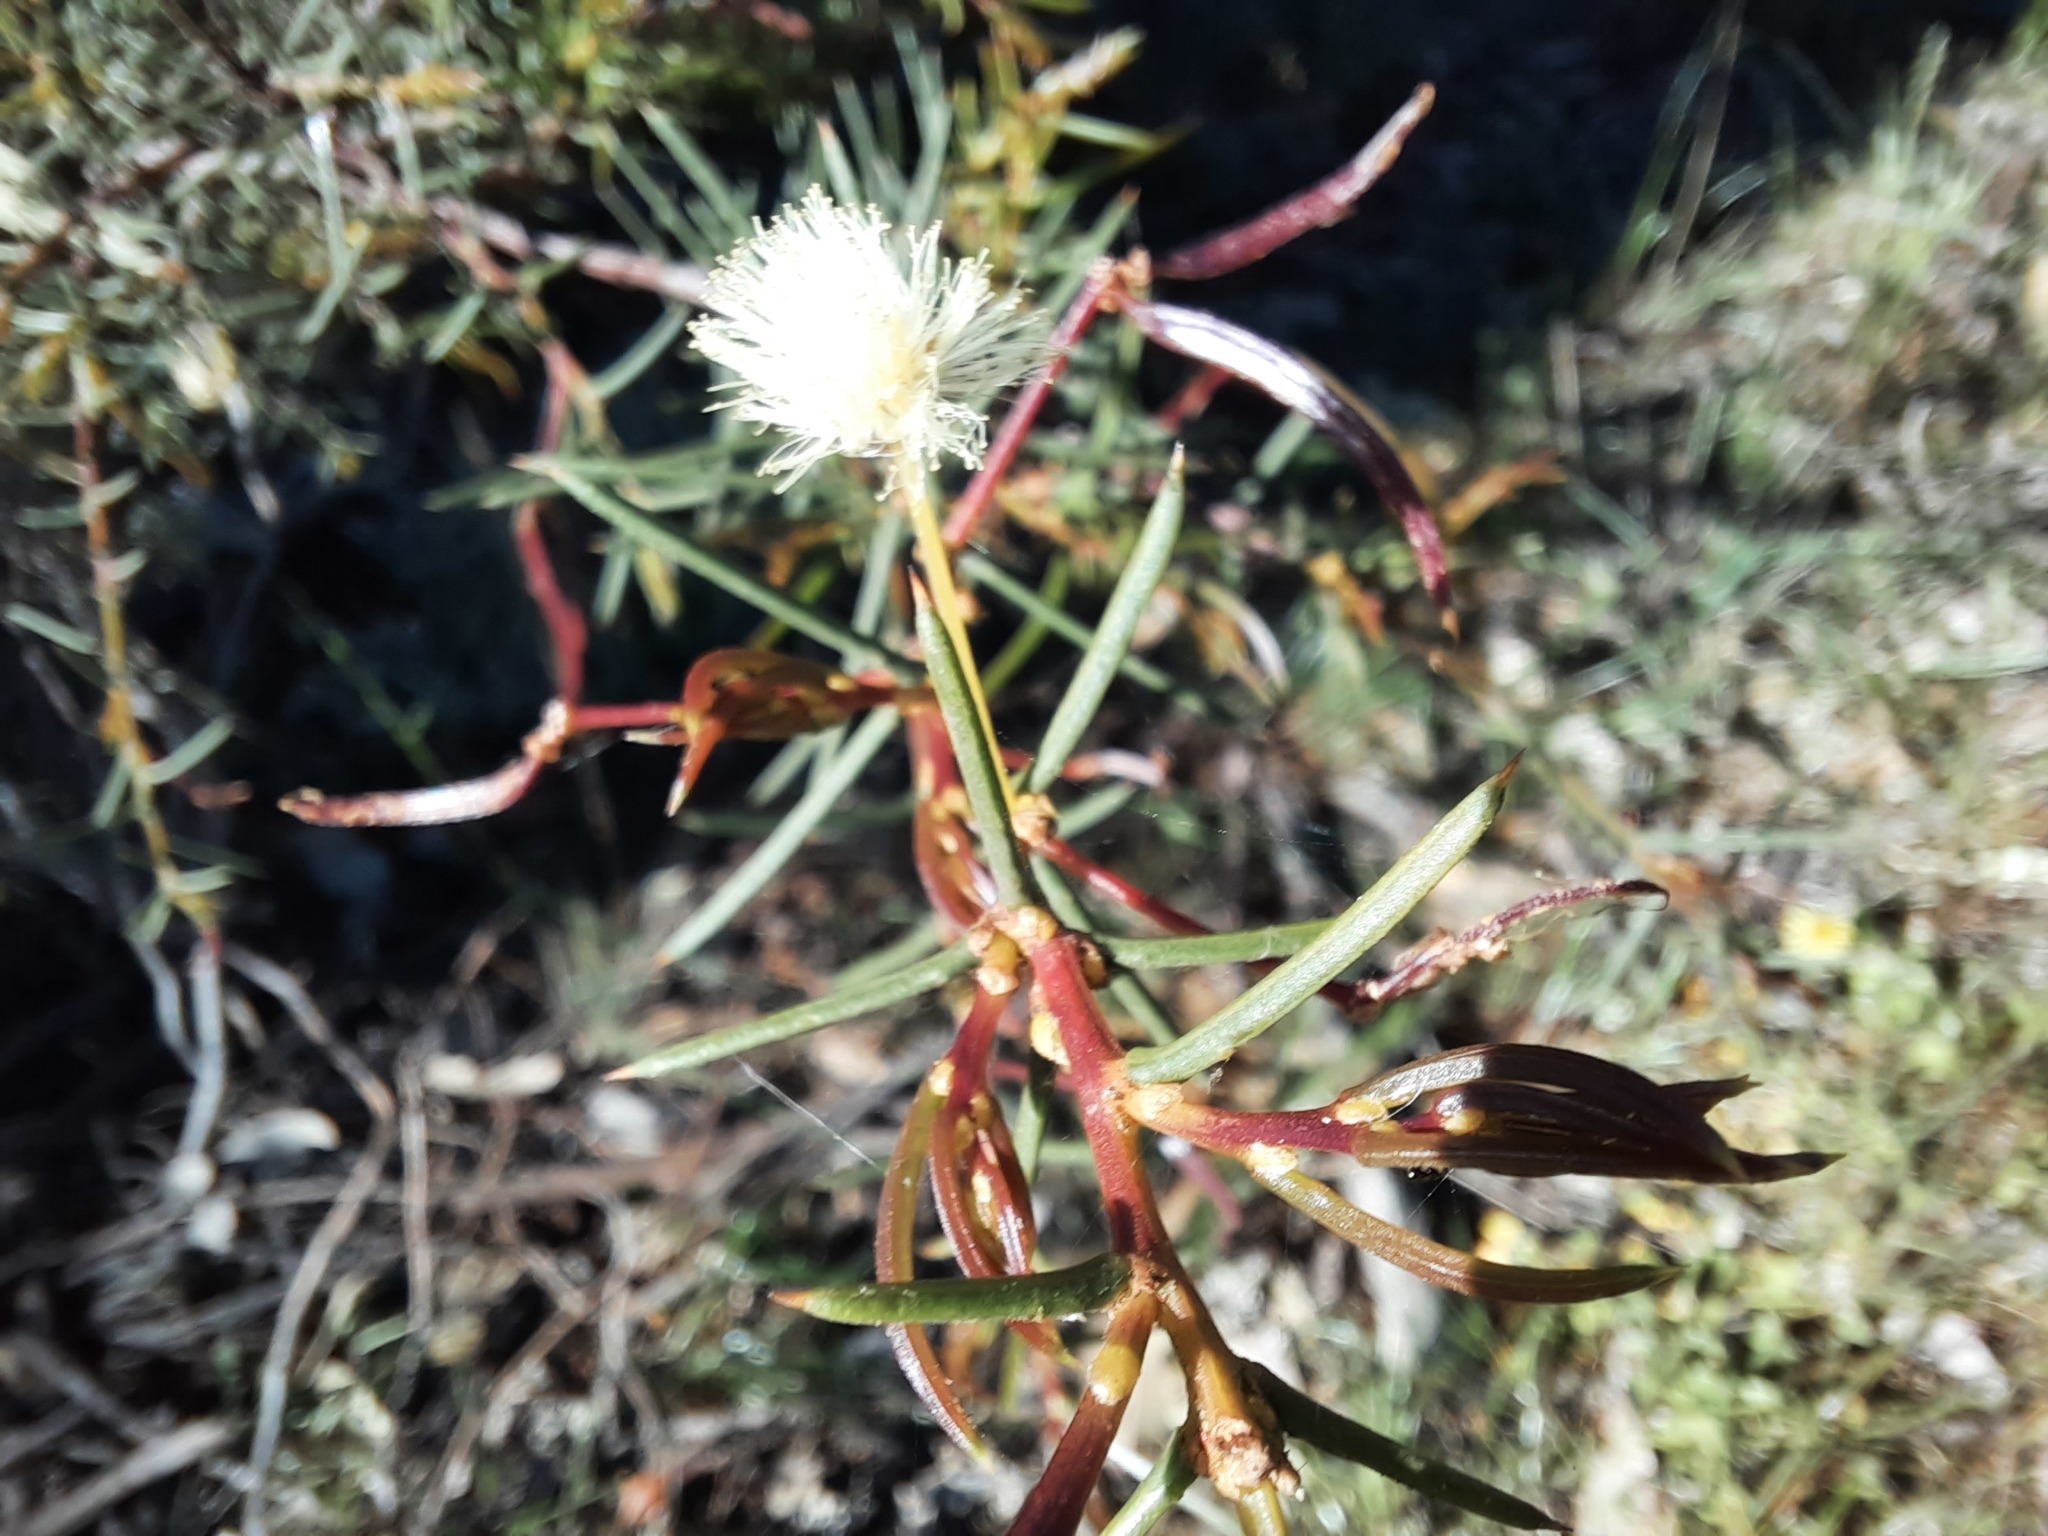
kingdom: Plantae
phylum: Tracheophyta
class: Magnoliopsida
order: Fabales
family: Fabaceae
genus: Acacia
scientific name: Acacia genistifolia
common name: Early wattle
